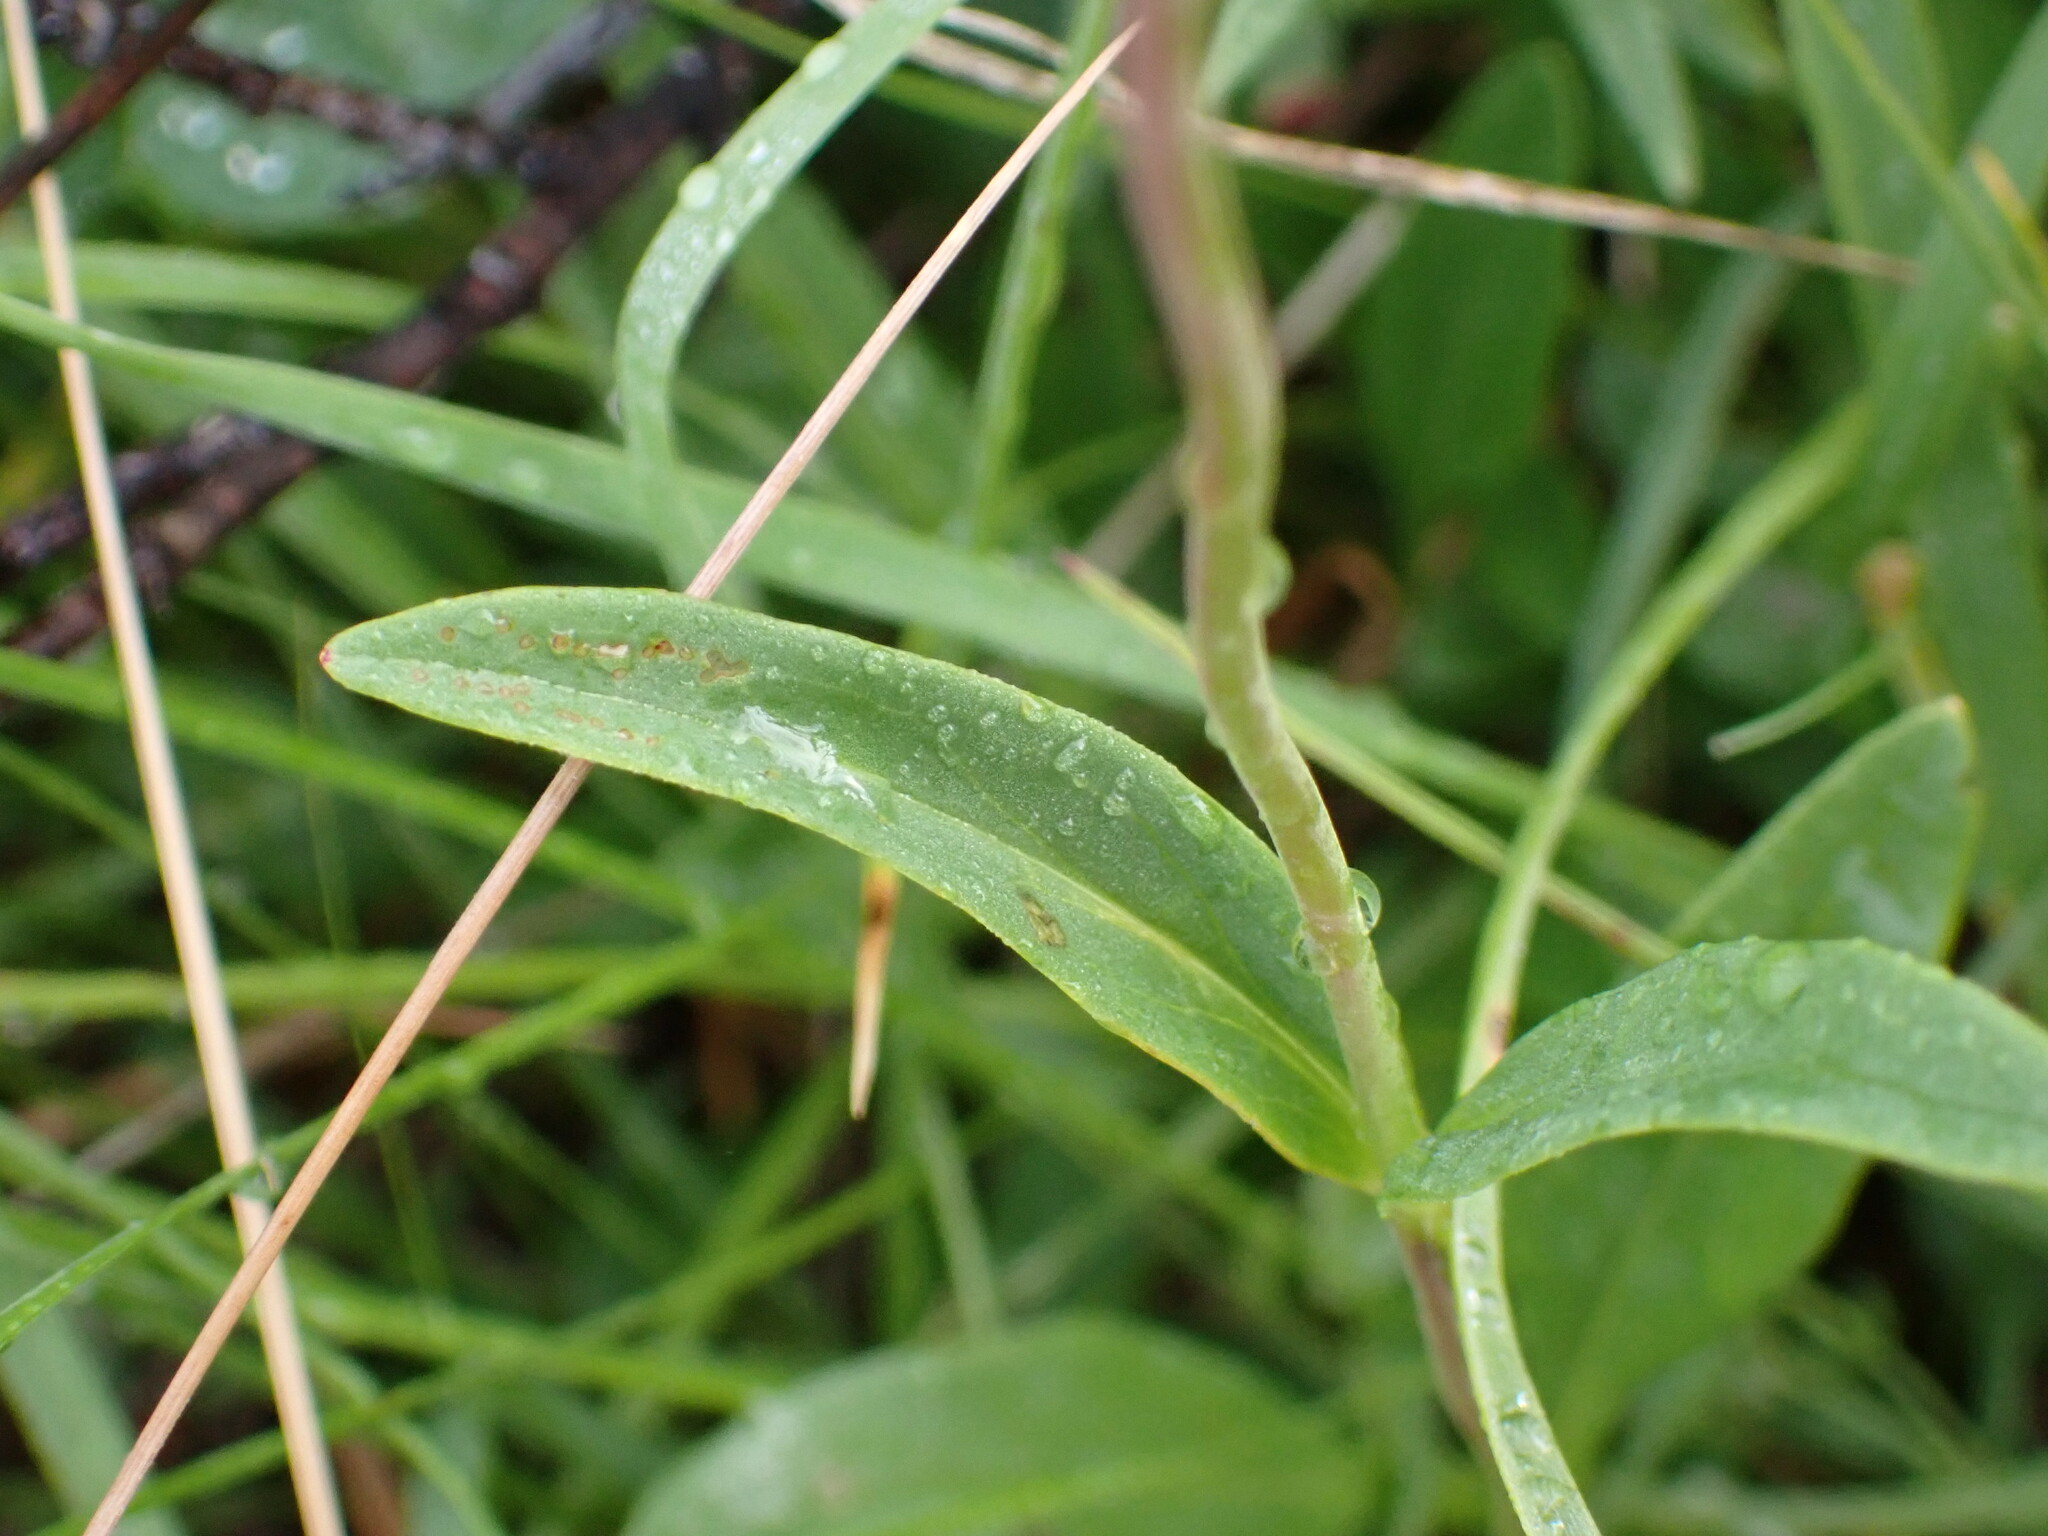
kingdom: Plantae
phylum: Tracheophyta
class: Magnoliopsida
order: Lamiales
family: Plantaginaceae
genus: Penstemon
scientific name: Penstemon procerus
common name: Small-flower penstemon
